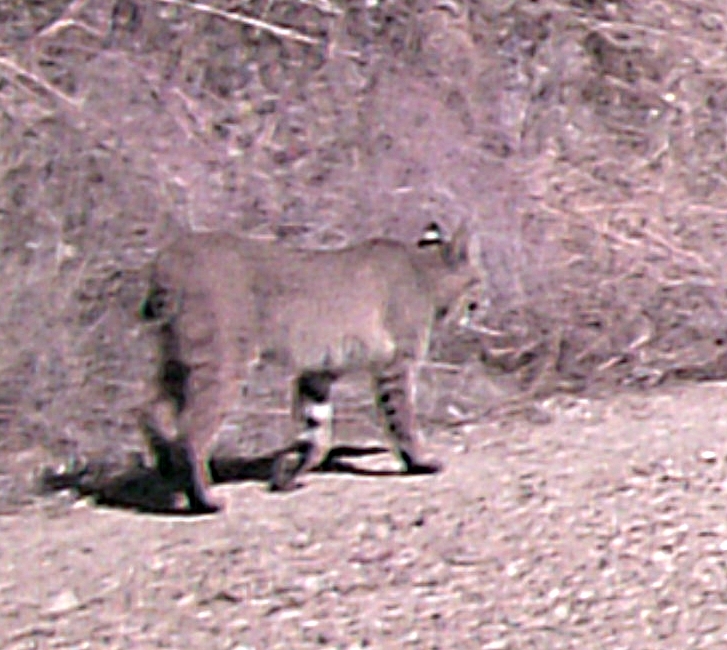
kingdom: Animalia
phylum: Chordata
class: Mammalia
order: Carnivora
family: Felidae
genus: Lynx
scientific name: Lynx rufus
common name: Bobcat
